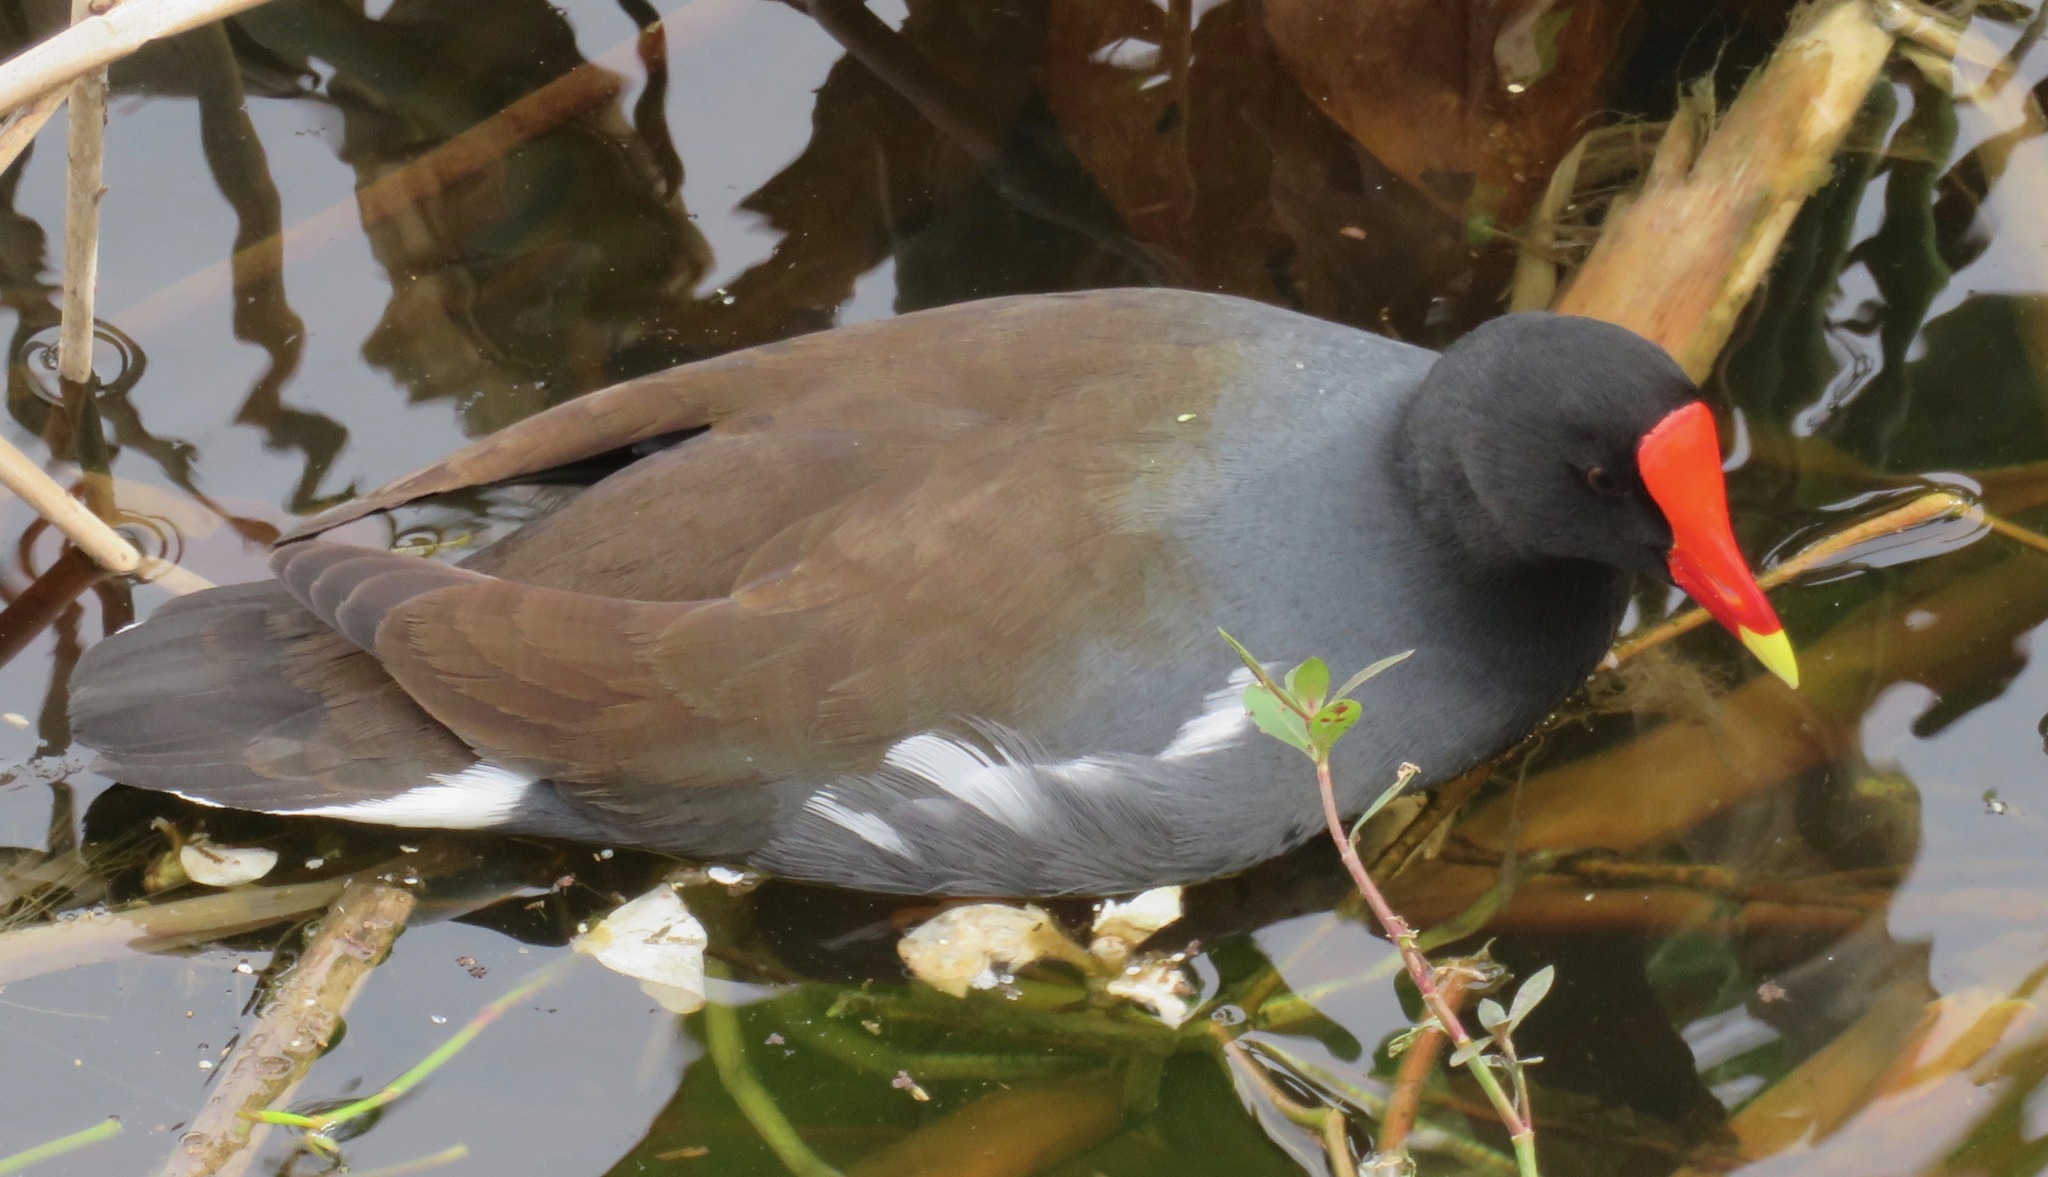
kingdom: Animalia
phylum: Chordata
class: Aves
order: Gruiformes
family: Rallidae
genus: Gallinula
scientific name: Gallinula chloropus
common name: Common moorhen
